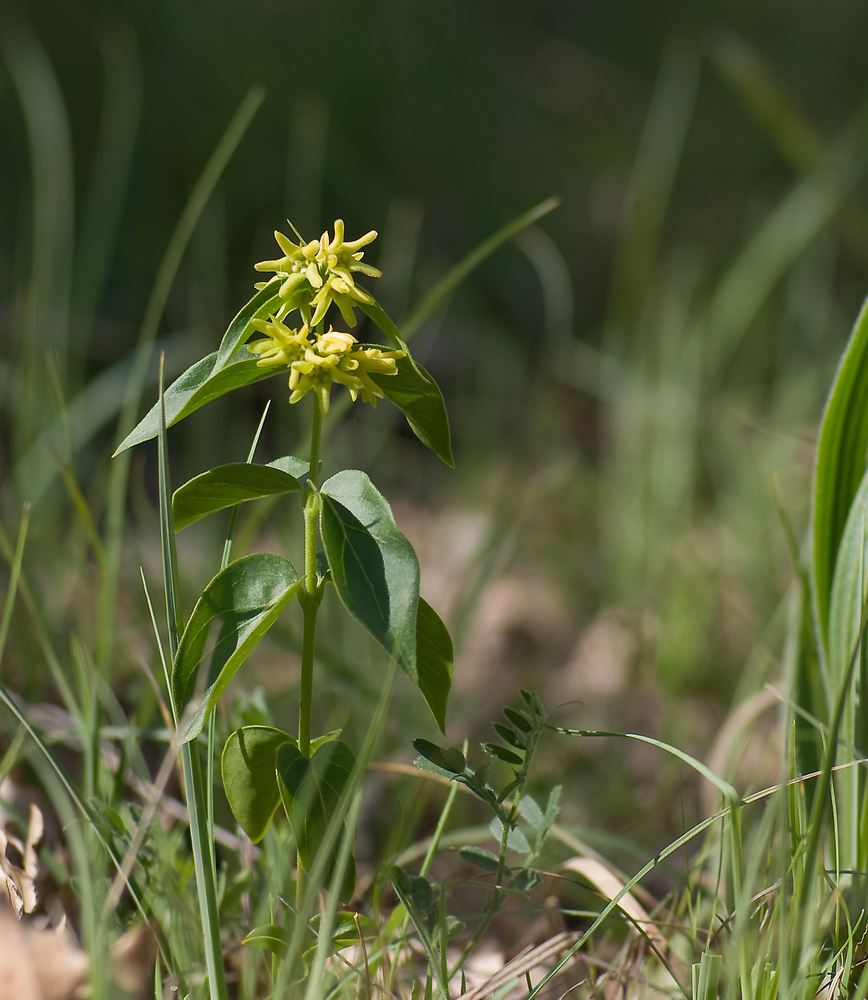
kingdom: Plantae
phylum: Tracheophyta
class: Magnoliopsida
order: Gentianales
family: Apocynaceae
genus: Vincetoxicum
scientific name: Vincetoxicum hirundinaria
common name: White swallowwort
